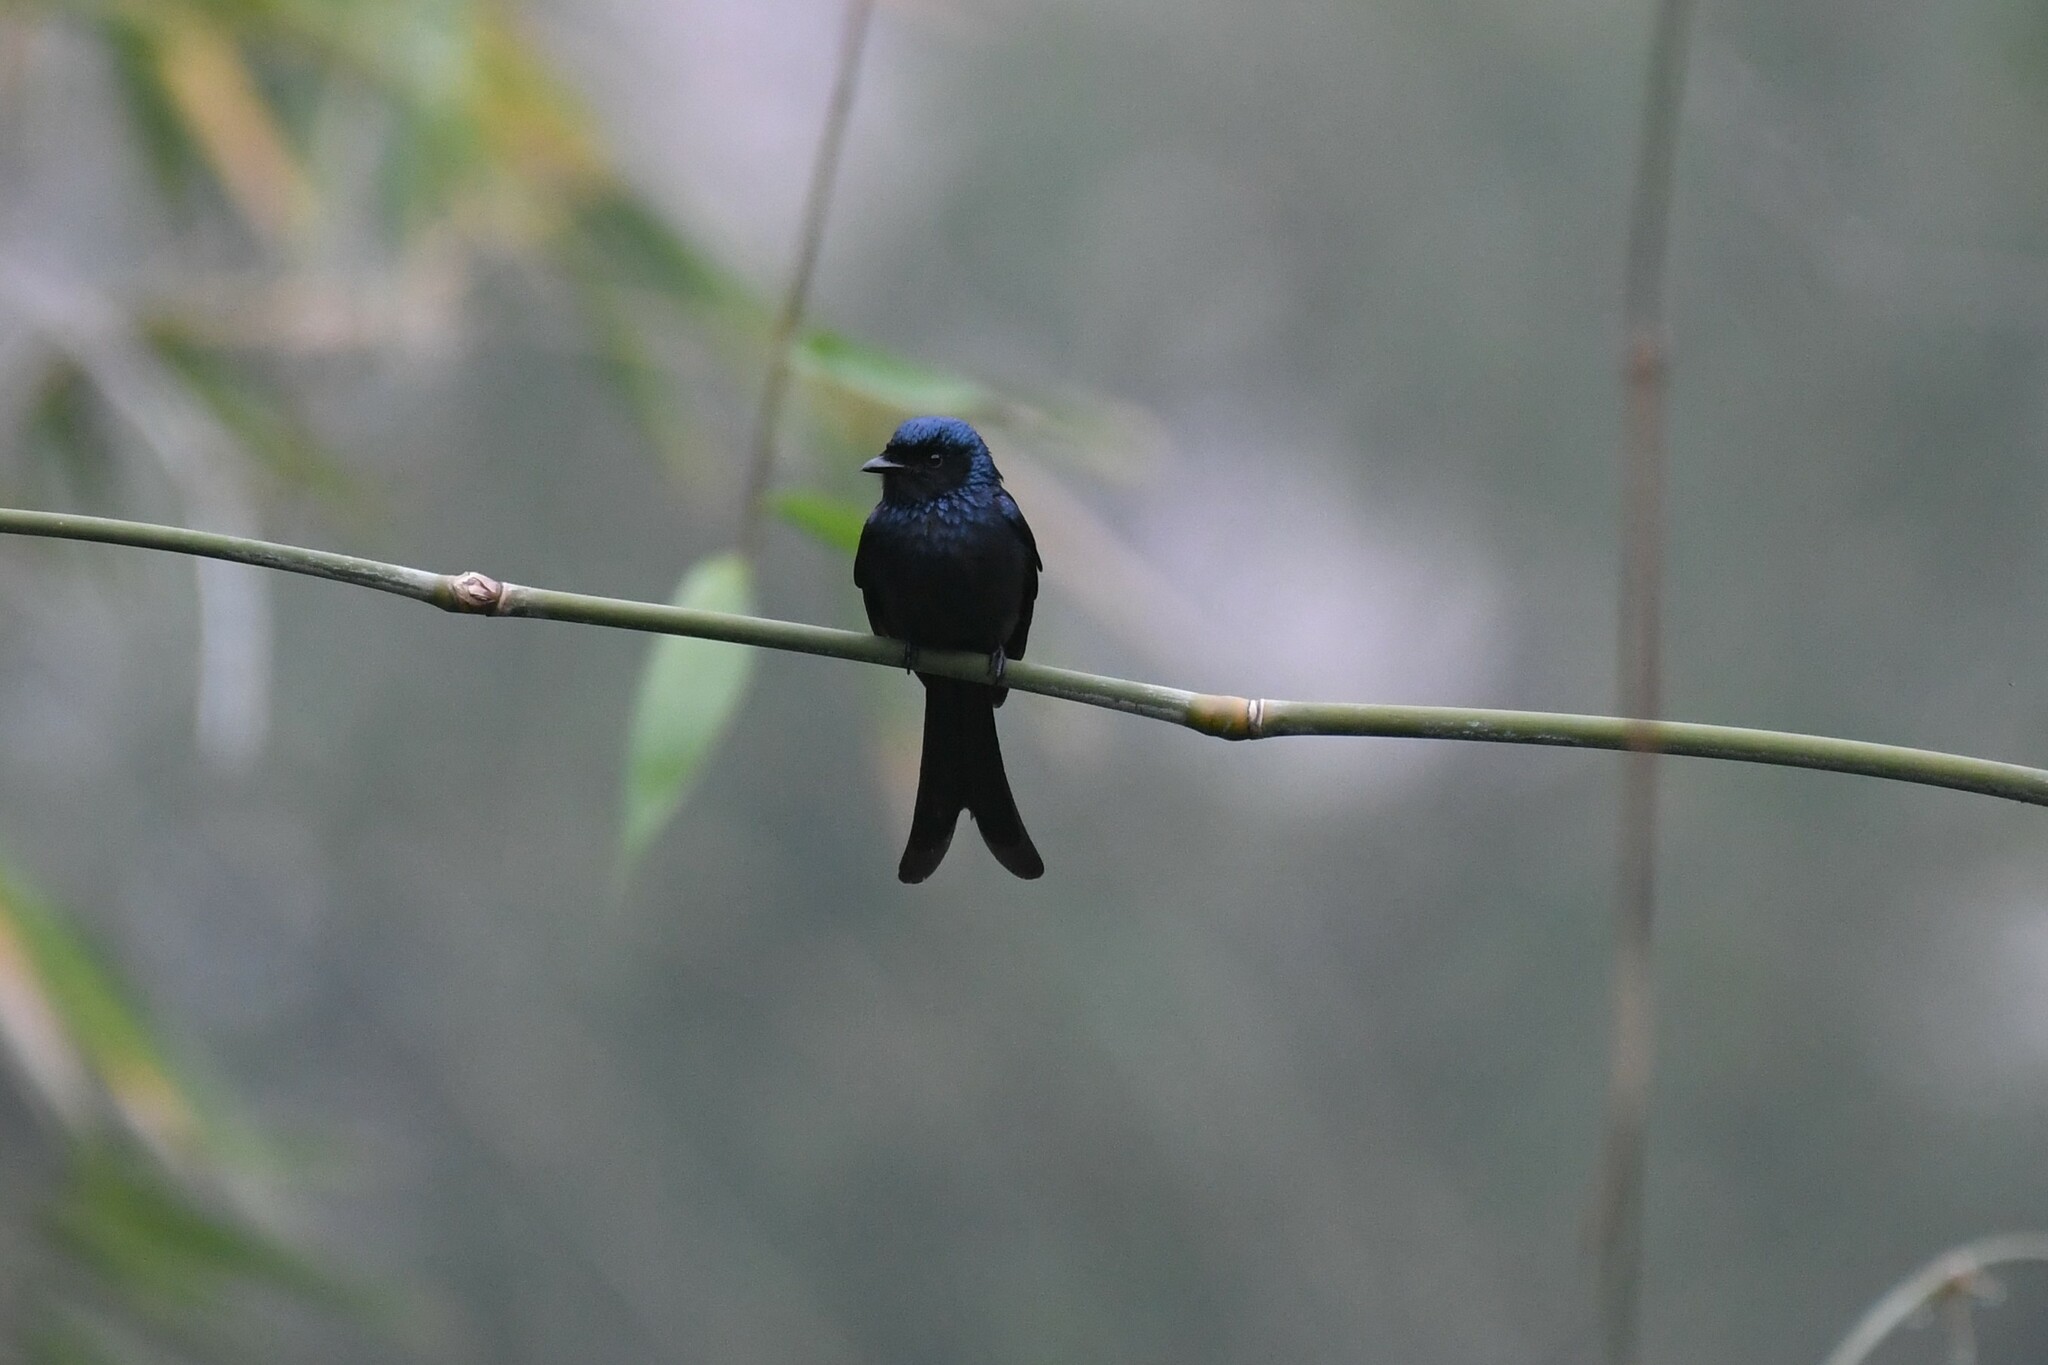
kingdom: Animalia
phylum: Chordata
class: Aves
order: Passeriformes
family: Dicruridae
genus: Dicrurus
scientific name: Dicrurus aeneus
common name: Bronzed drongo
